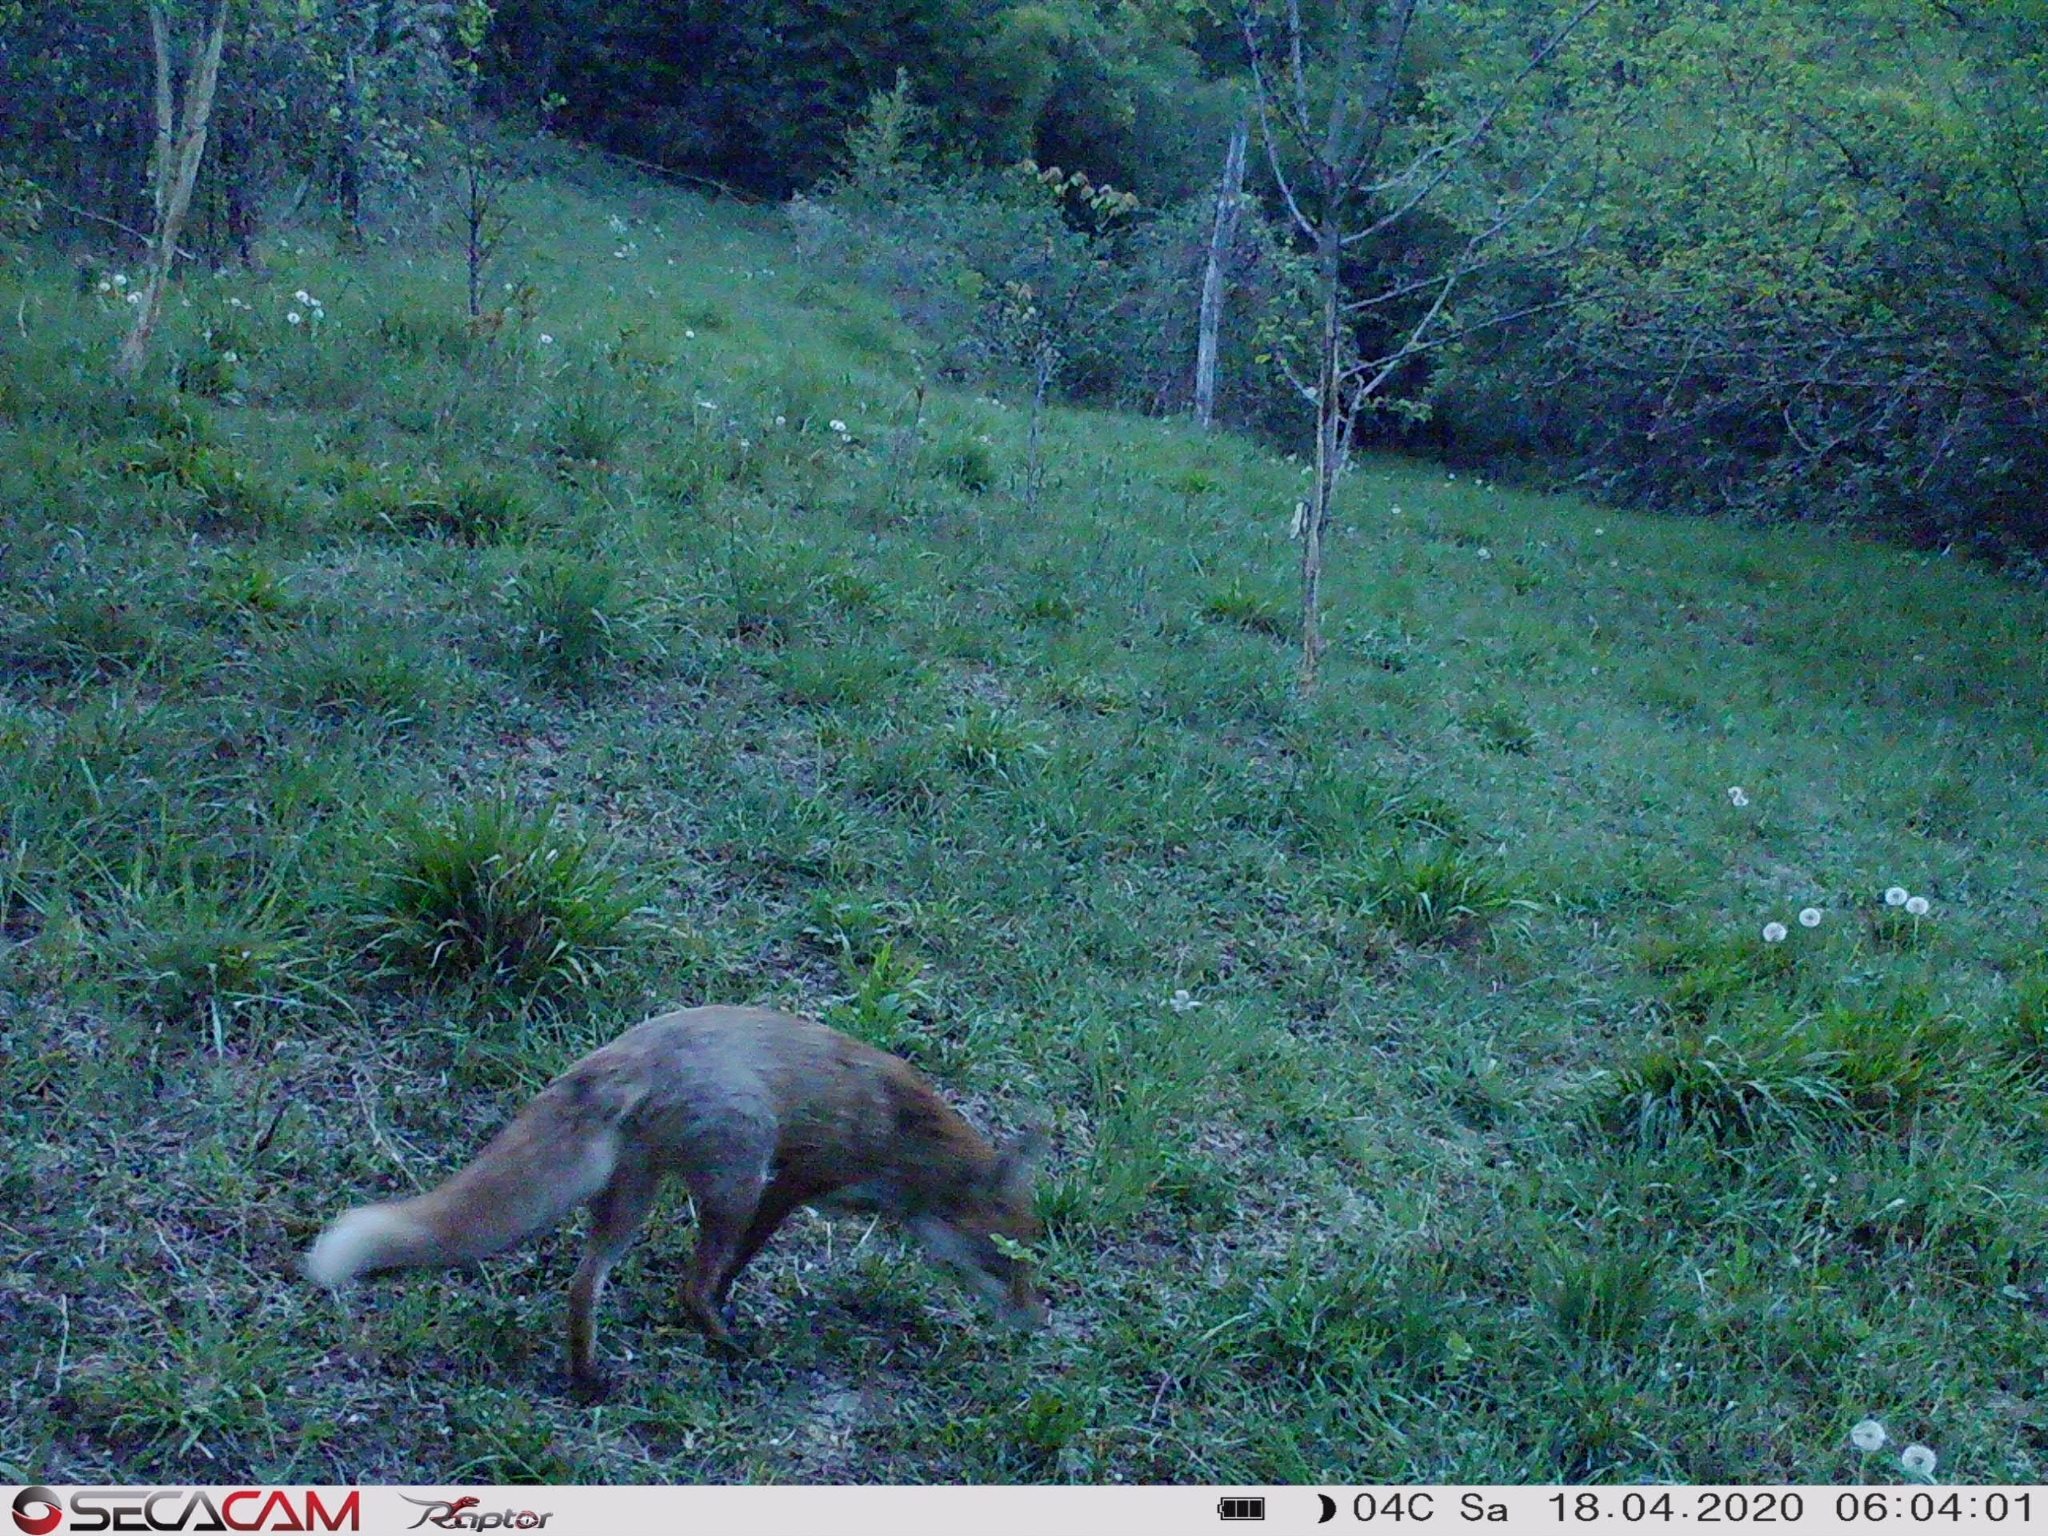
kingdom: Animalia
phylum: Chordata
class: Mammalia
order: Carnivora
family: Canidae
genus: Vulpes
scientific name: Vulpes vulpes
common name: Red fox
